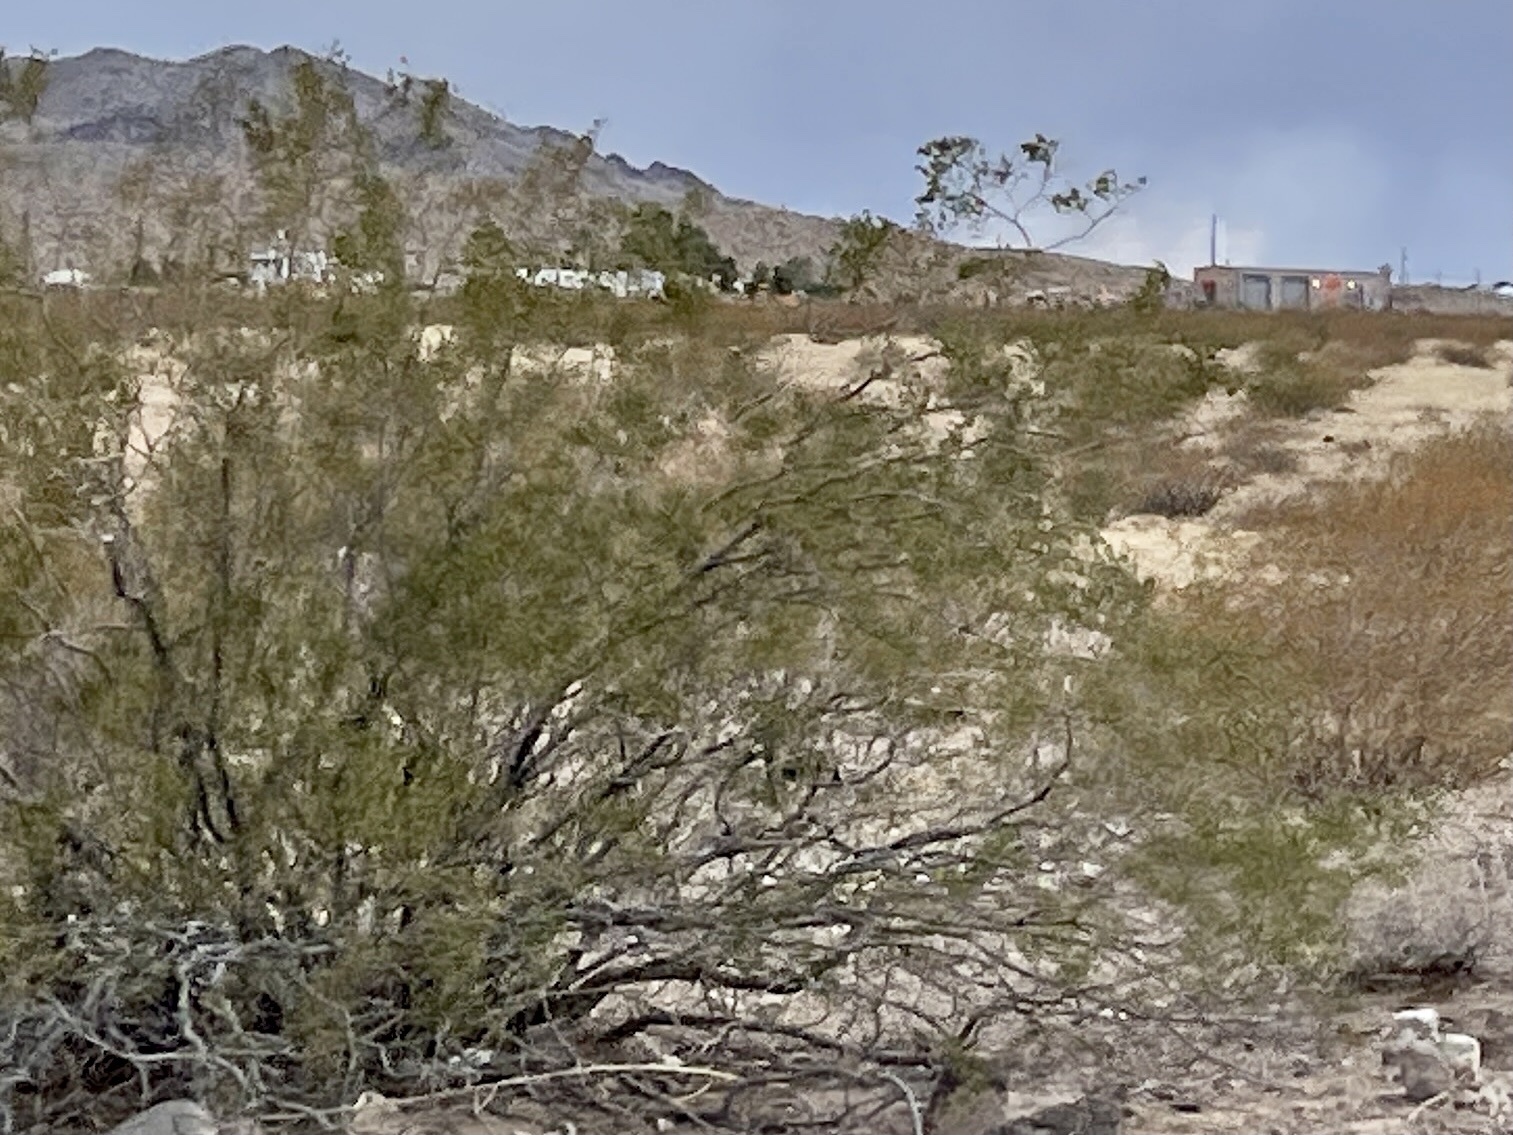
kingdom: Plantae
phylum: Tracheophyta
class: Magnoliopsida
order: Zygophyllales
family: Zygophyllaceae
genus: Larrea
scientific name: Larrea tridentata
